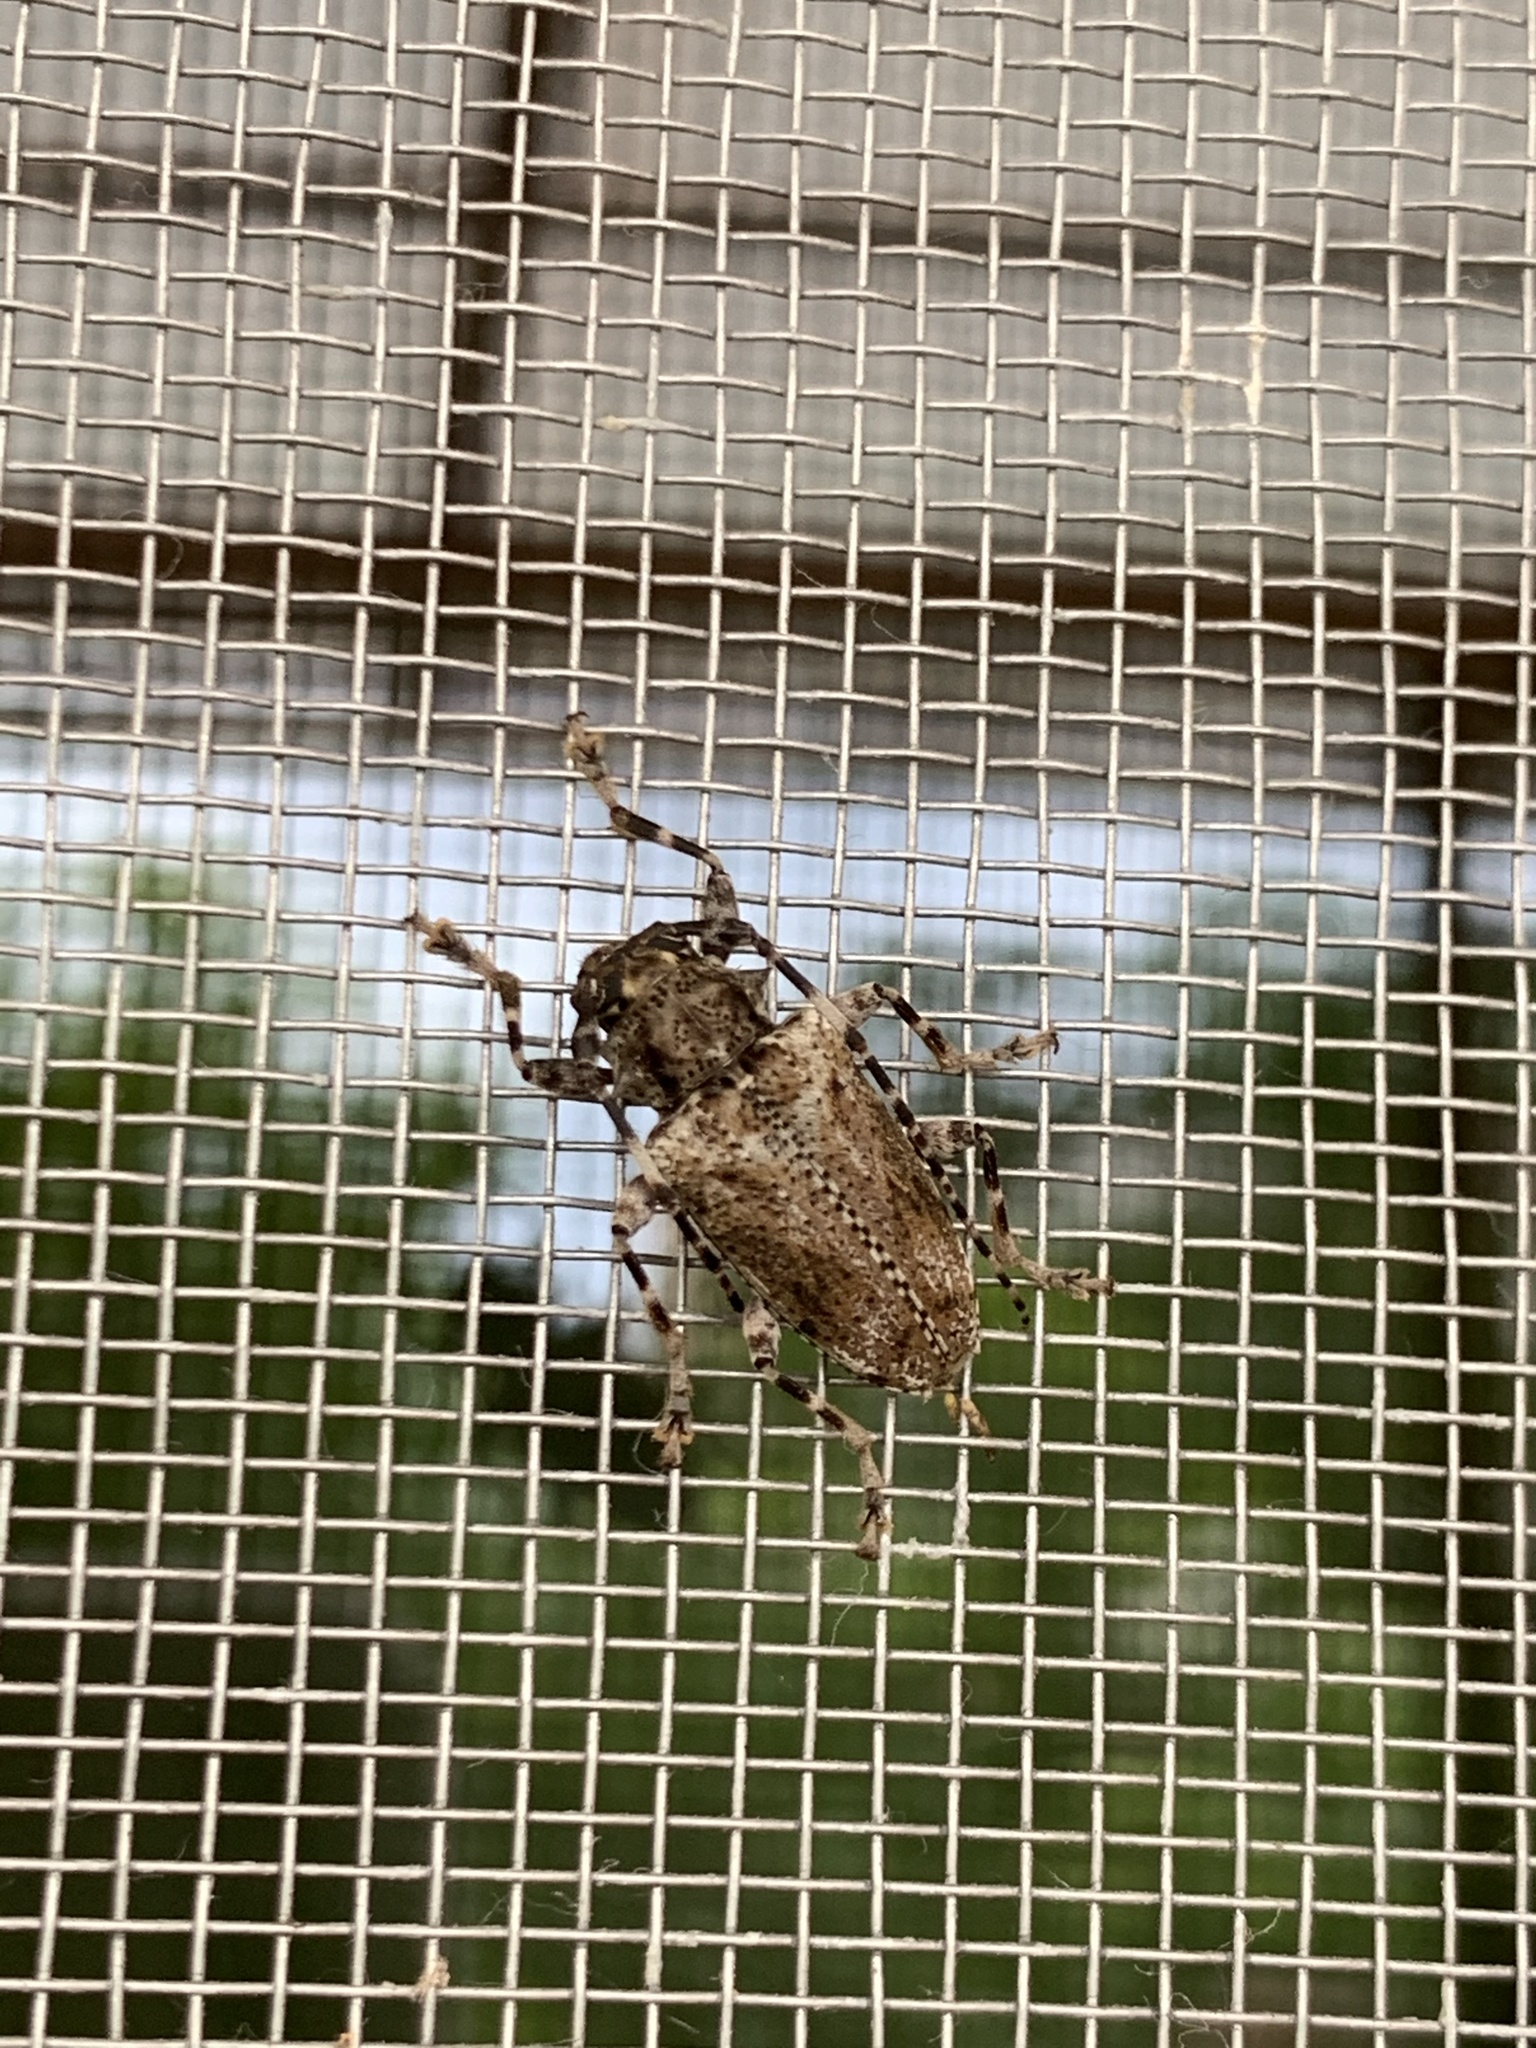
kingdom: Animalia
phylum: Arthropoda
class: Insecta
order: Coleoptera
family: Cerambycidae
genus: Aegomorphus
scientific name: Aegomorphus
